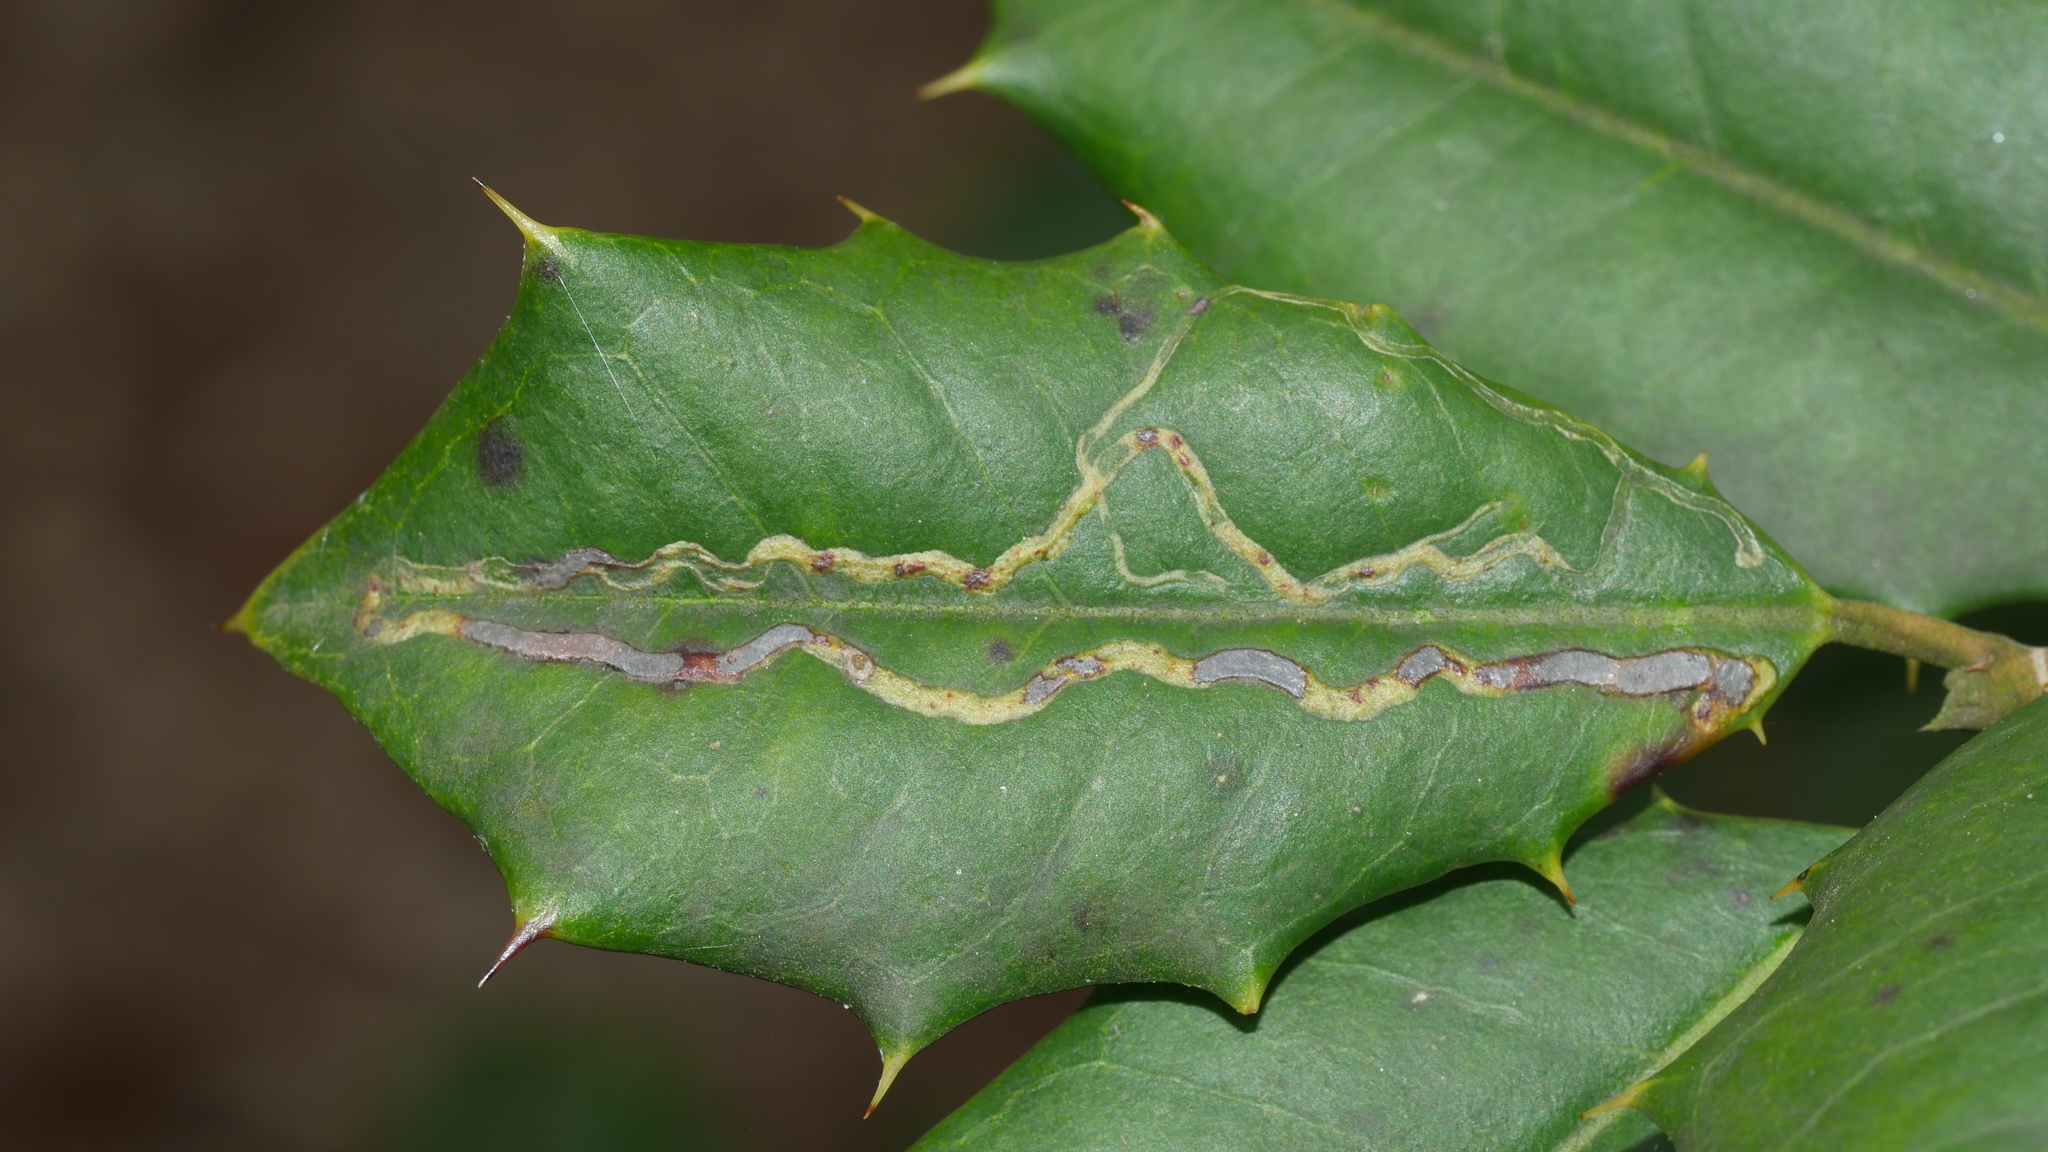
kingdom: Animalia
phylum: Arthropoda
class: Insecta
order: Diptera
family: Agromyzidae
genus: Phytomyza
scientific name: Phytomyza opacae
